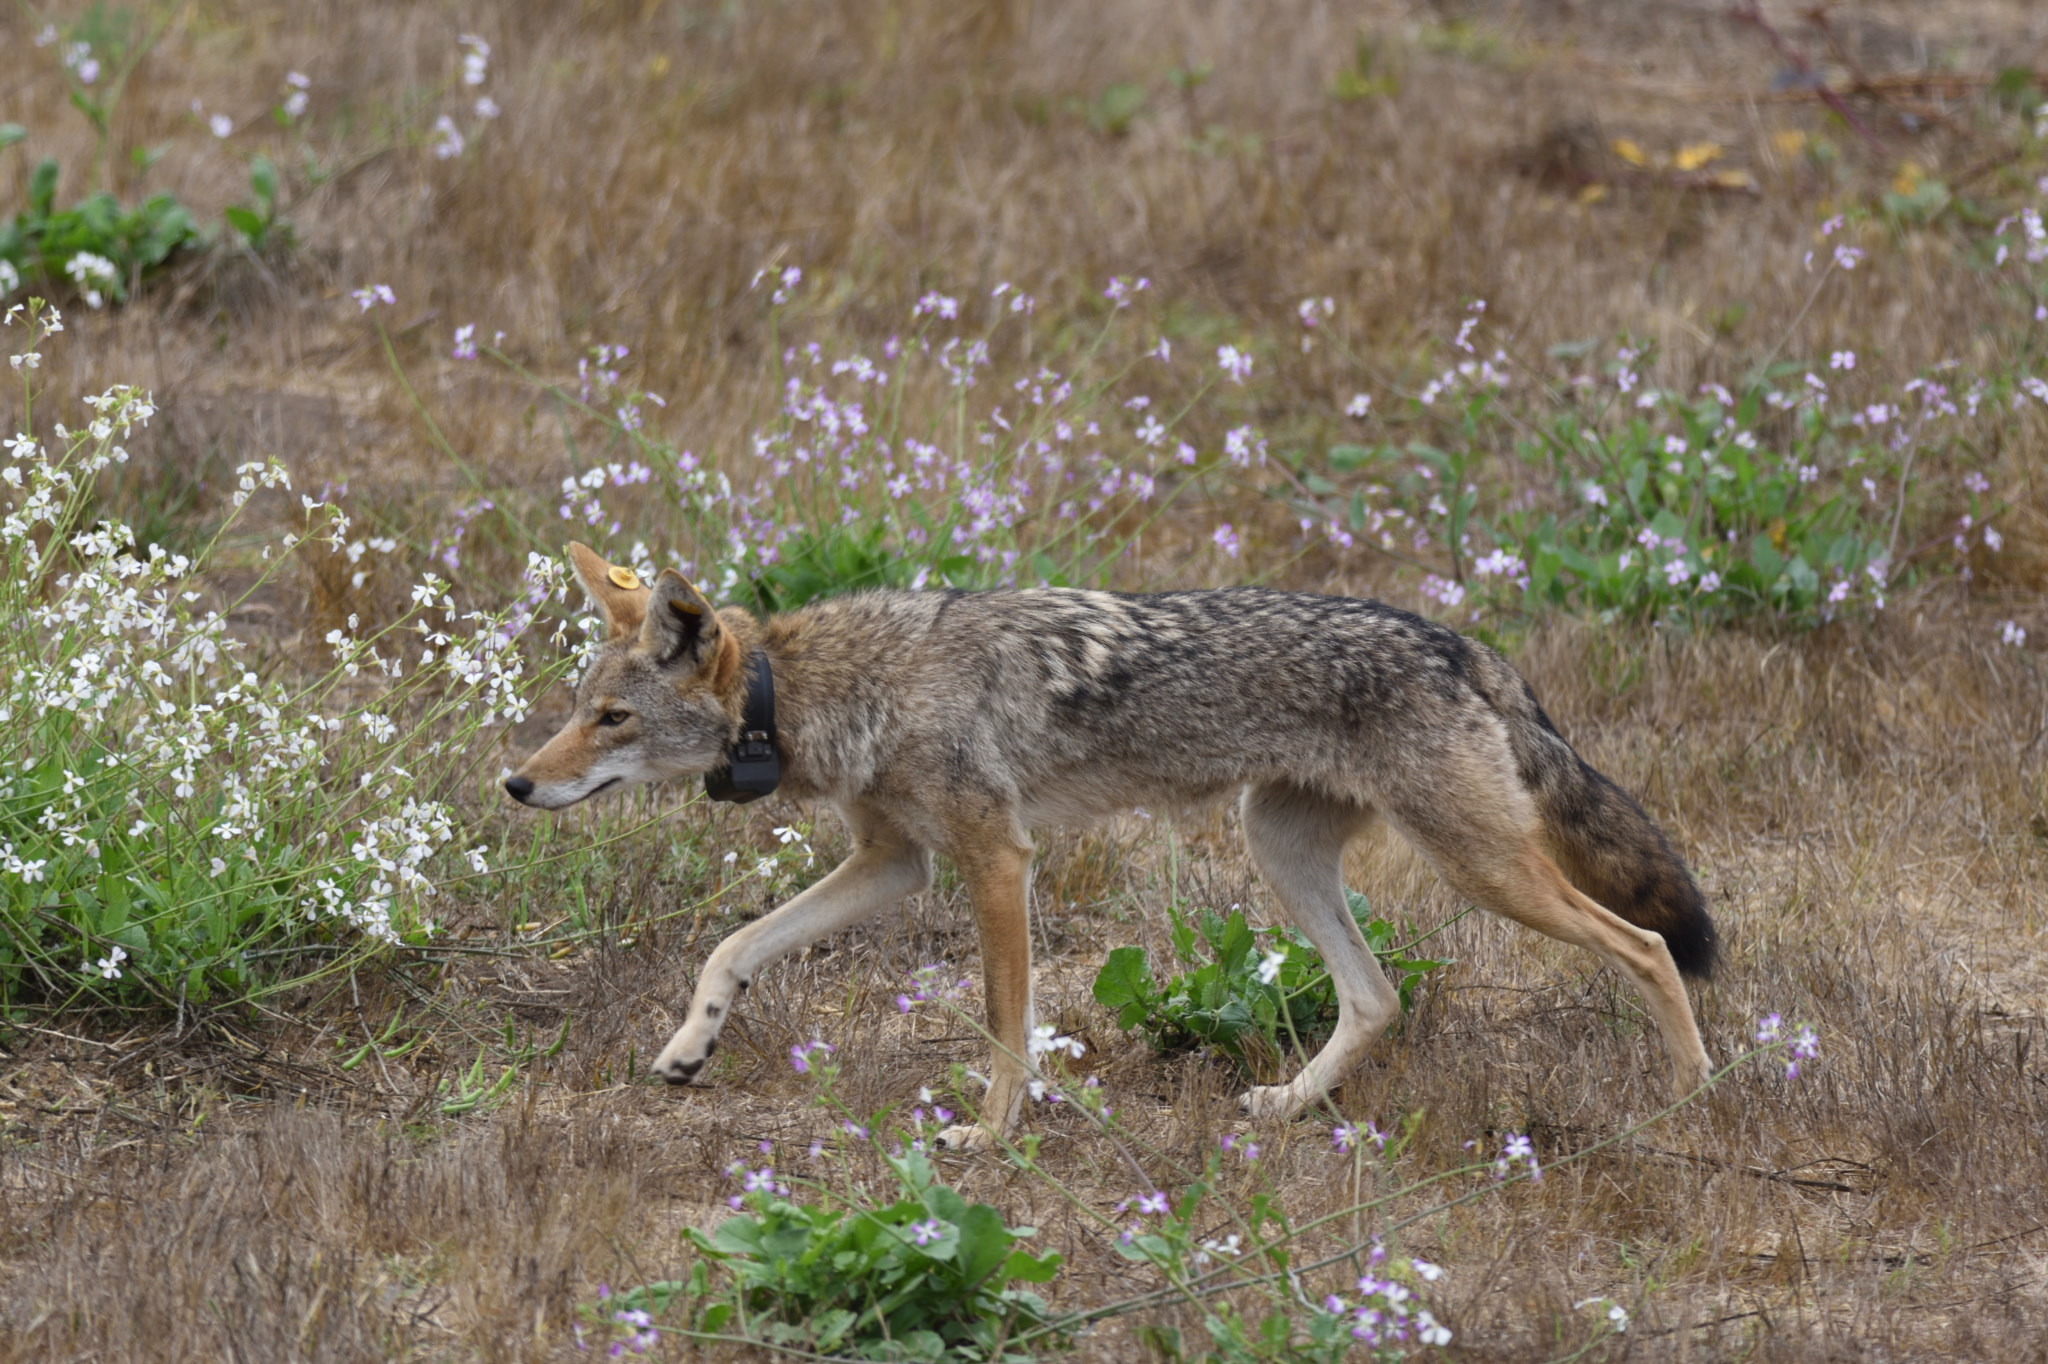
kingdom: Animalia
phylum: Chordata
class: Mammalia
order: Carnivora
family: Canidae
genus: Canis
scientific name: Canis latrans
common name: Coyote
